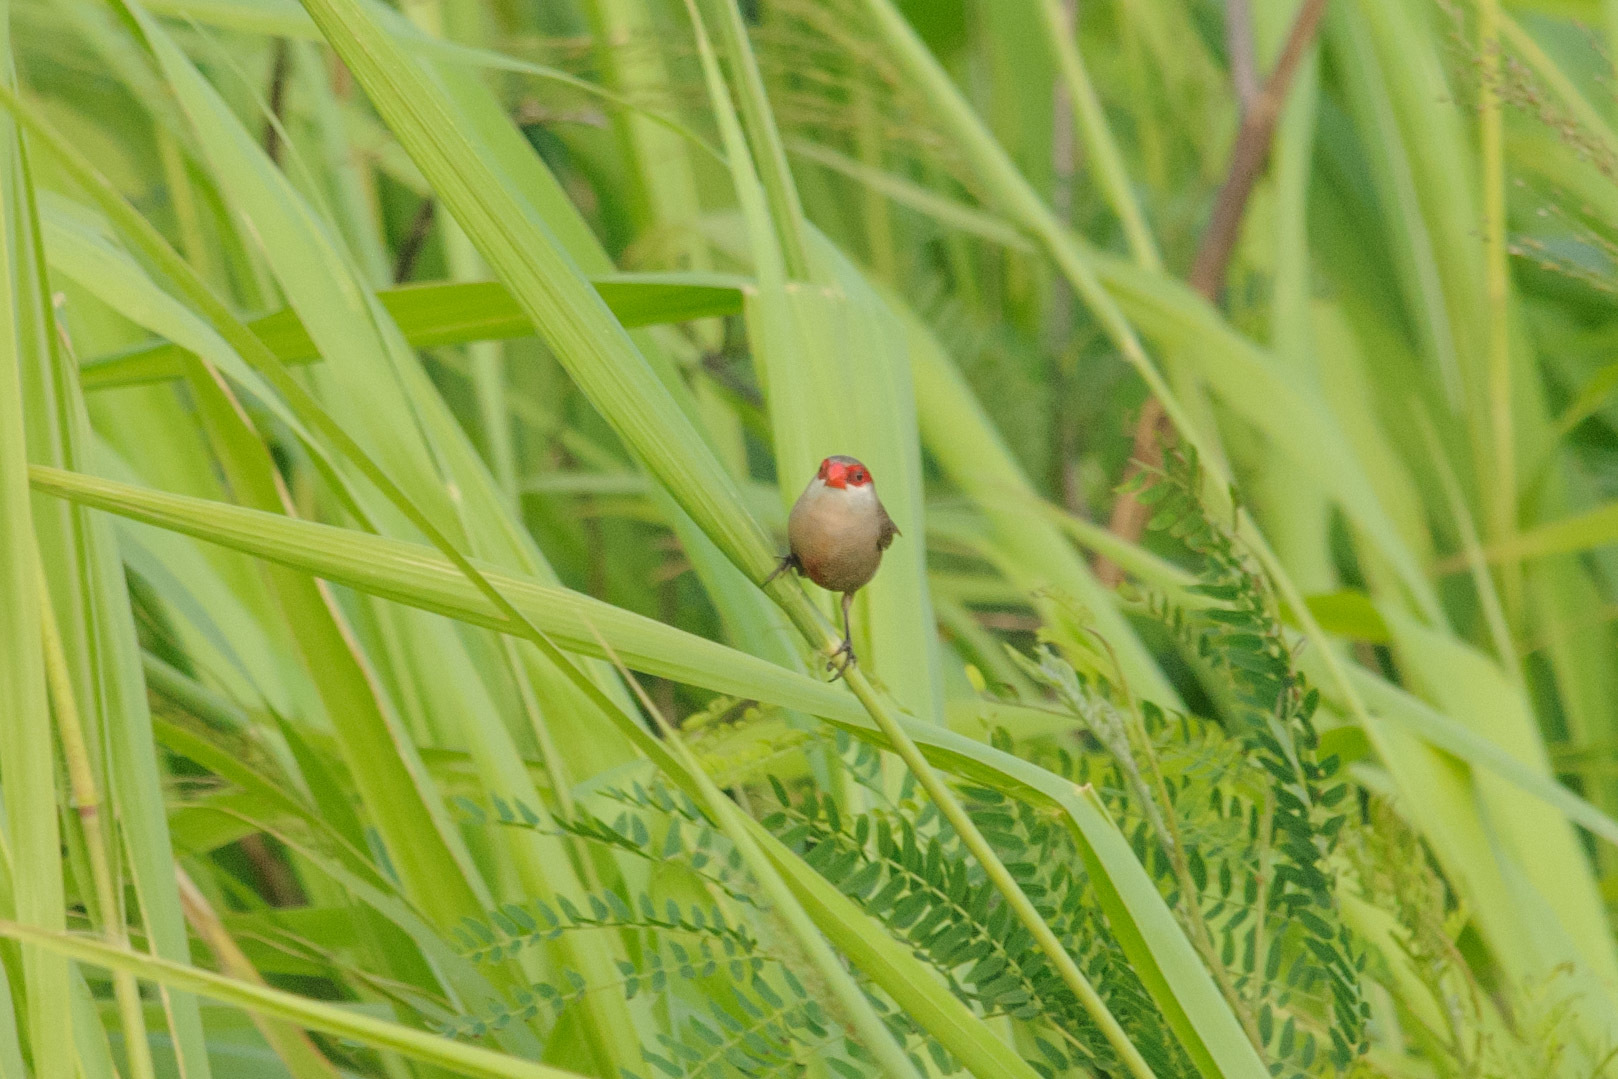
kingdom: Animalia
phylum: Chordata
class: Aves
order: Passeriformes
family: Estrildidae
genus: Estrilda
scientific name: Estrilda astrild
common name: Common waxbill
